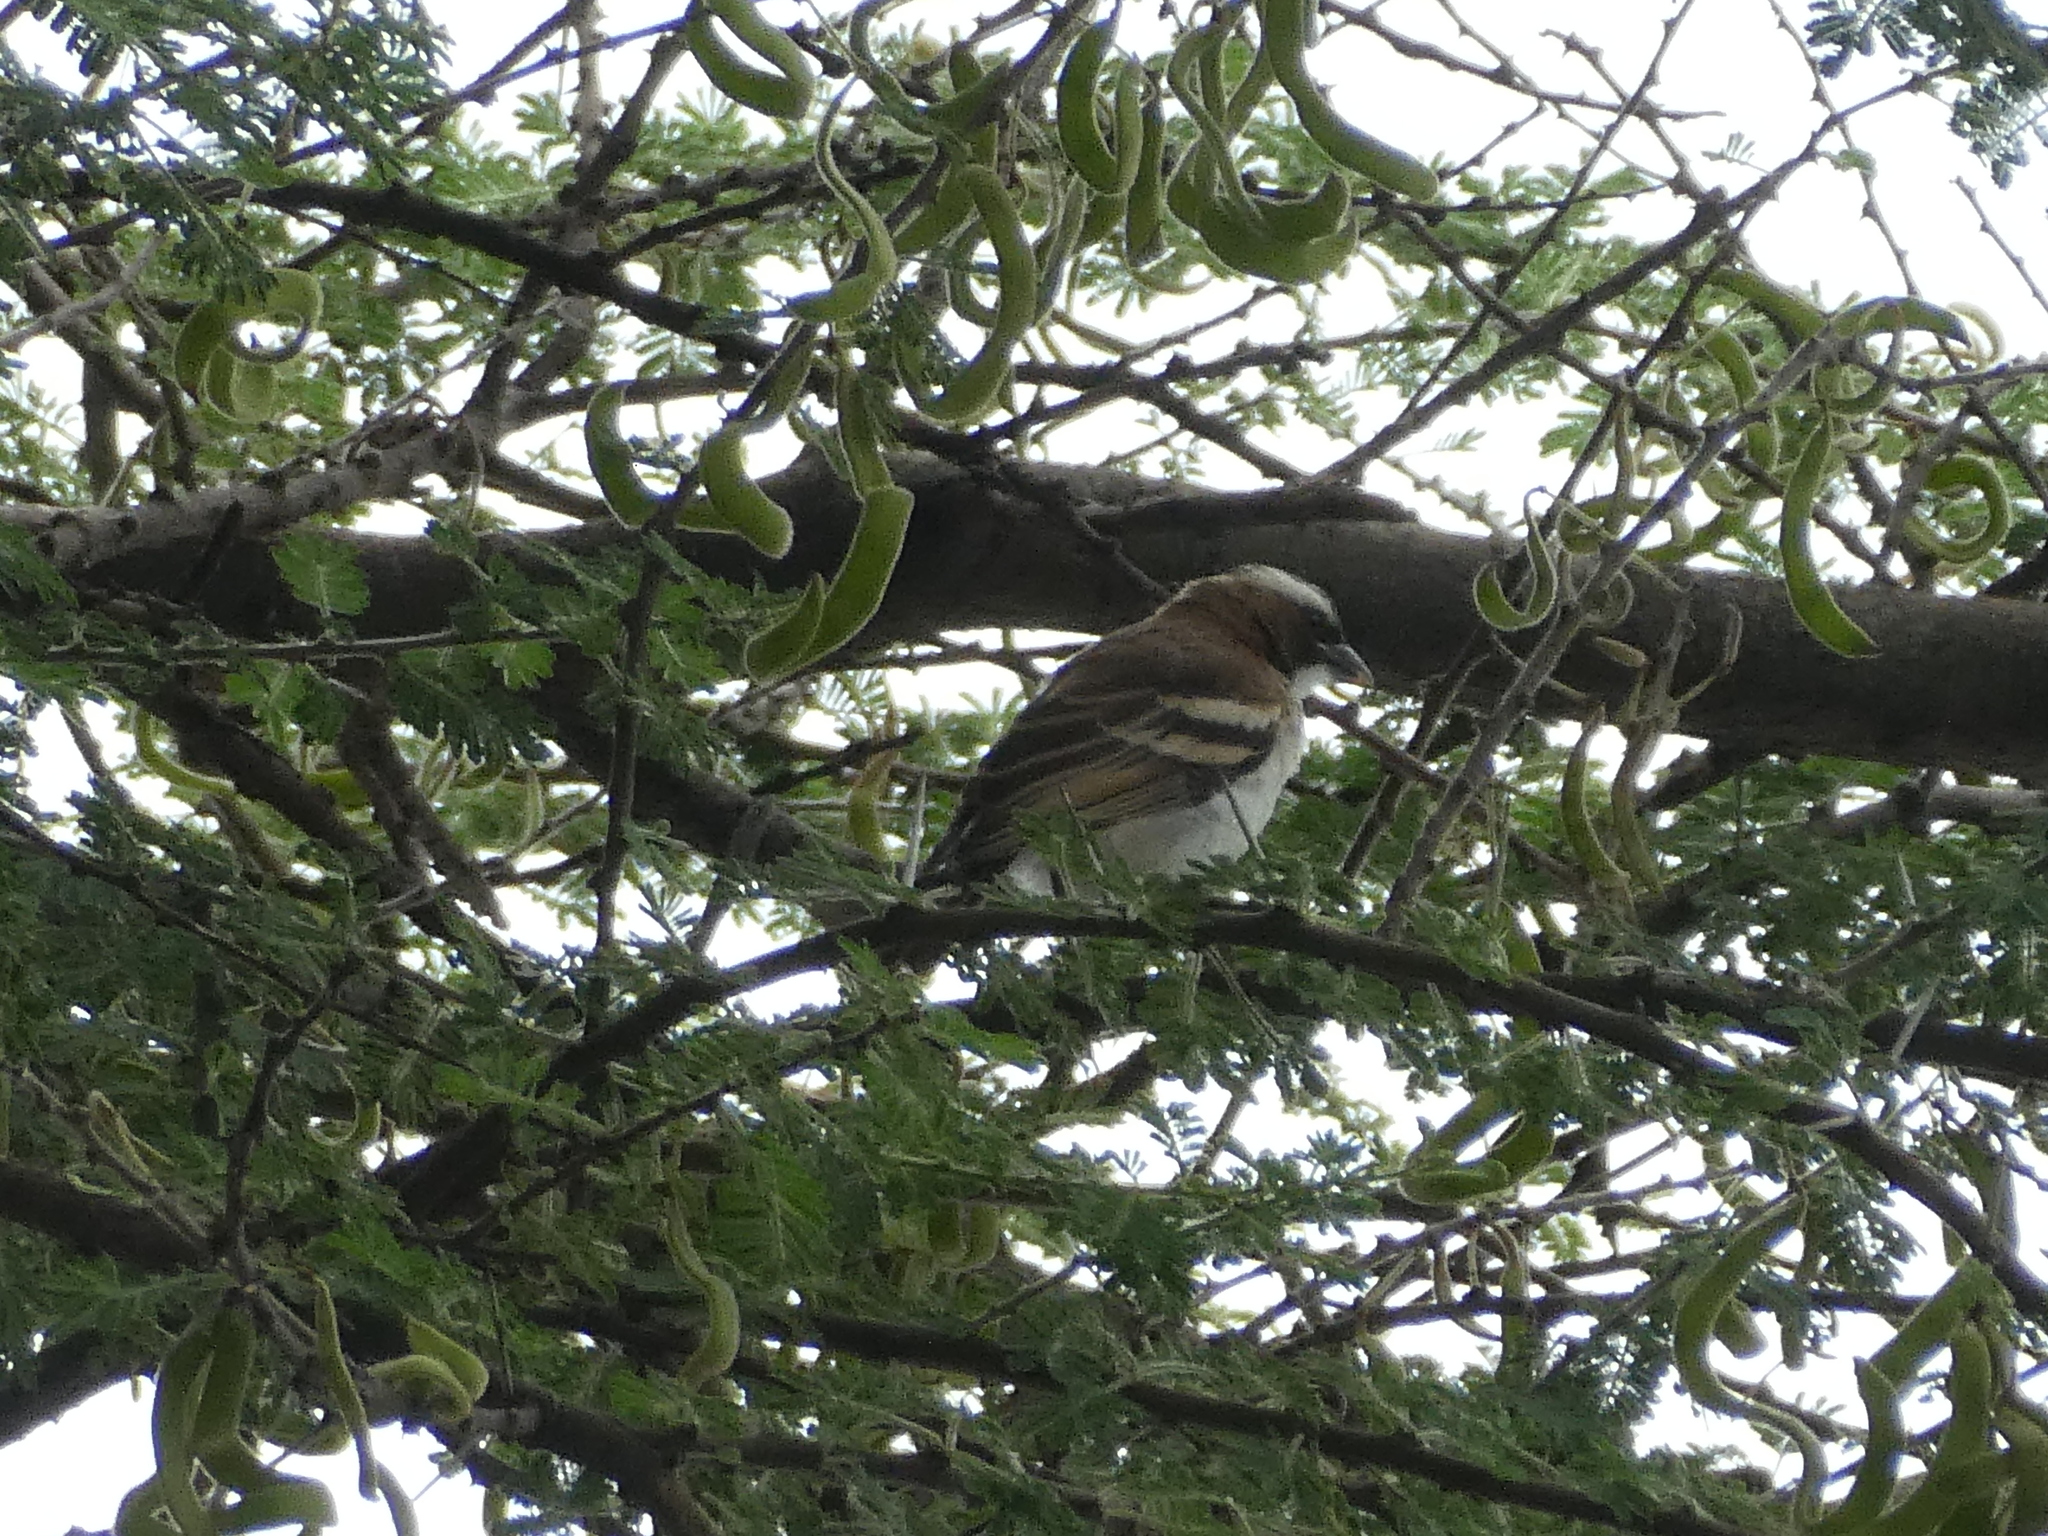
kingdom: Animalia
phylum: Chordata
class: Aves
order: Passeriformes
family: Passeridae
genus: Plocepasser
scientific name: Plocepasser mahali
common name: White-browed sparrow-weaver
